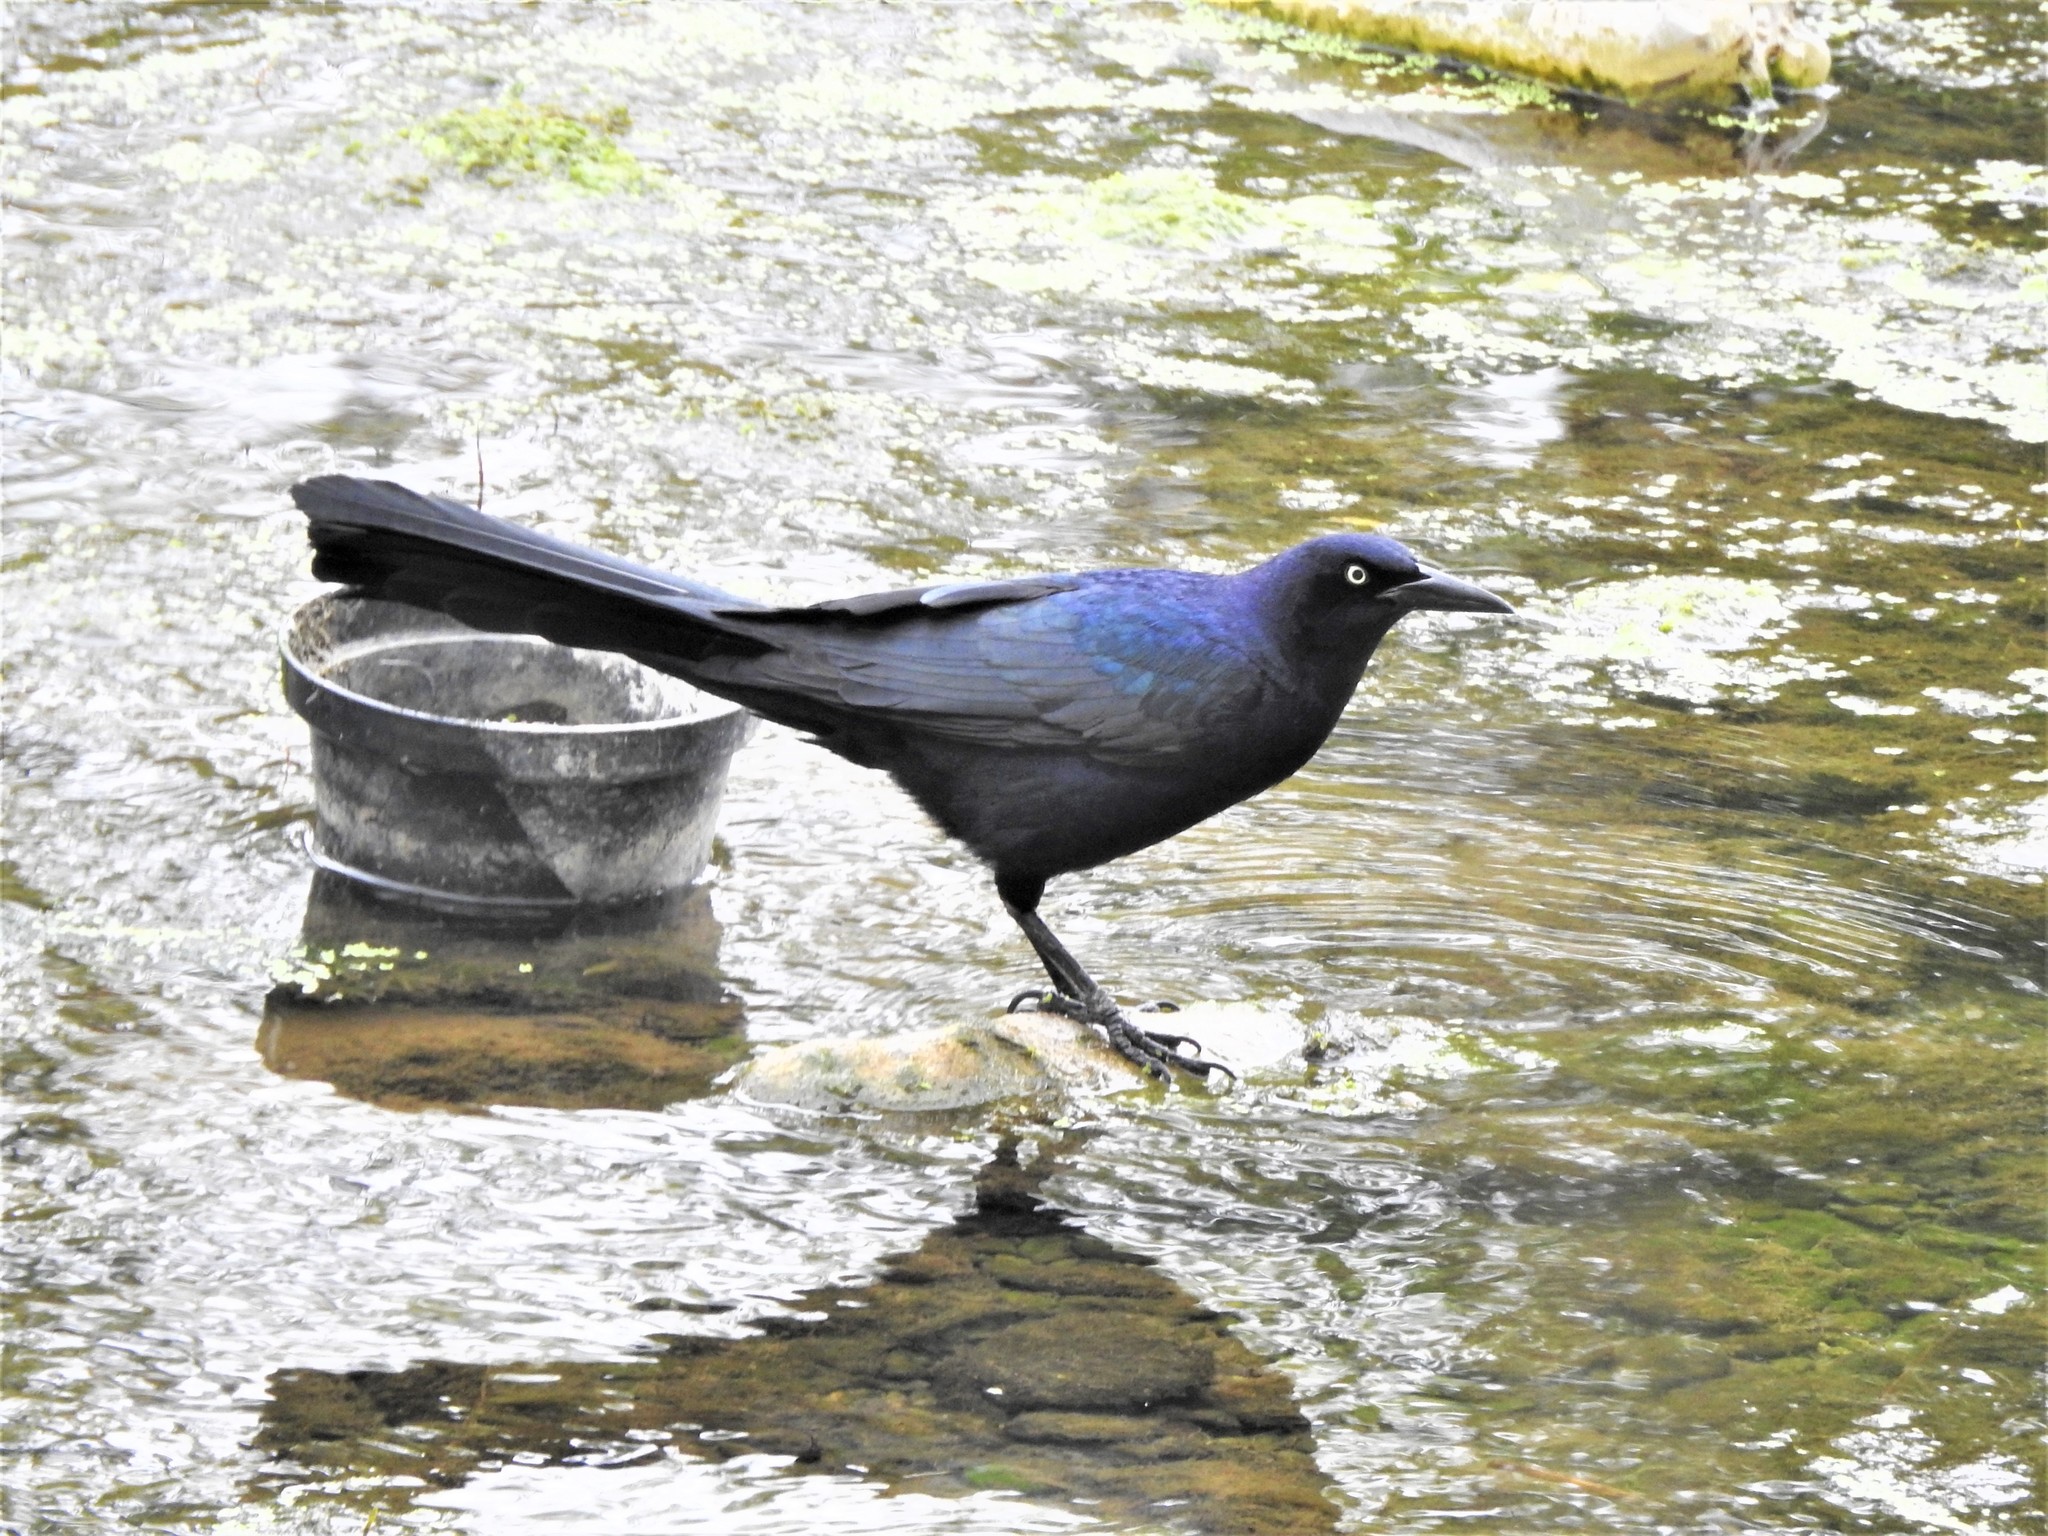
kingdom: Animalia
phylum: Chordata
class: Aves
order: Passeriformes
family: Icteridae
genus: Quiscalus
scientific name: Quiscalus mexicanus
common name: Great-tailed grackle
